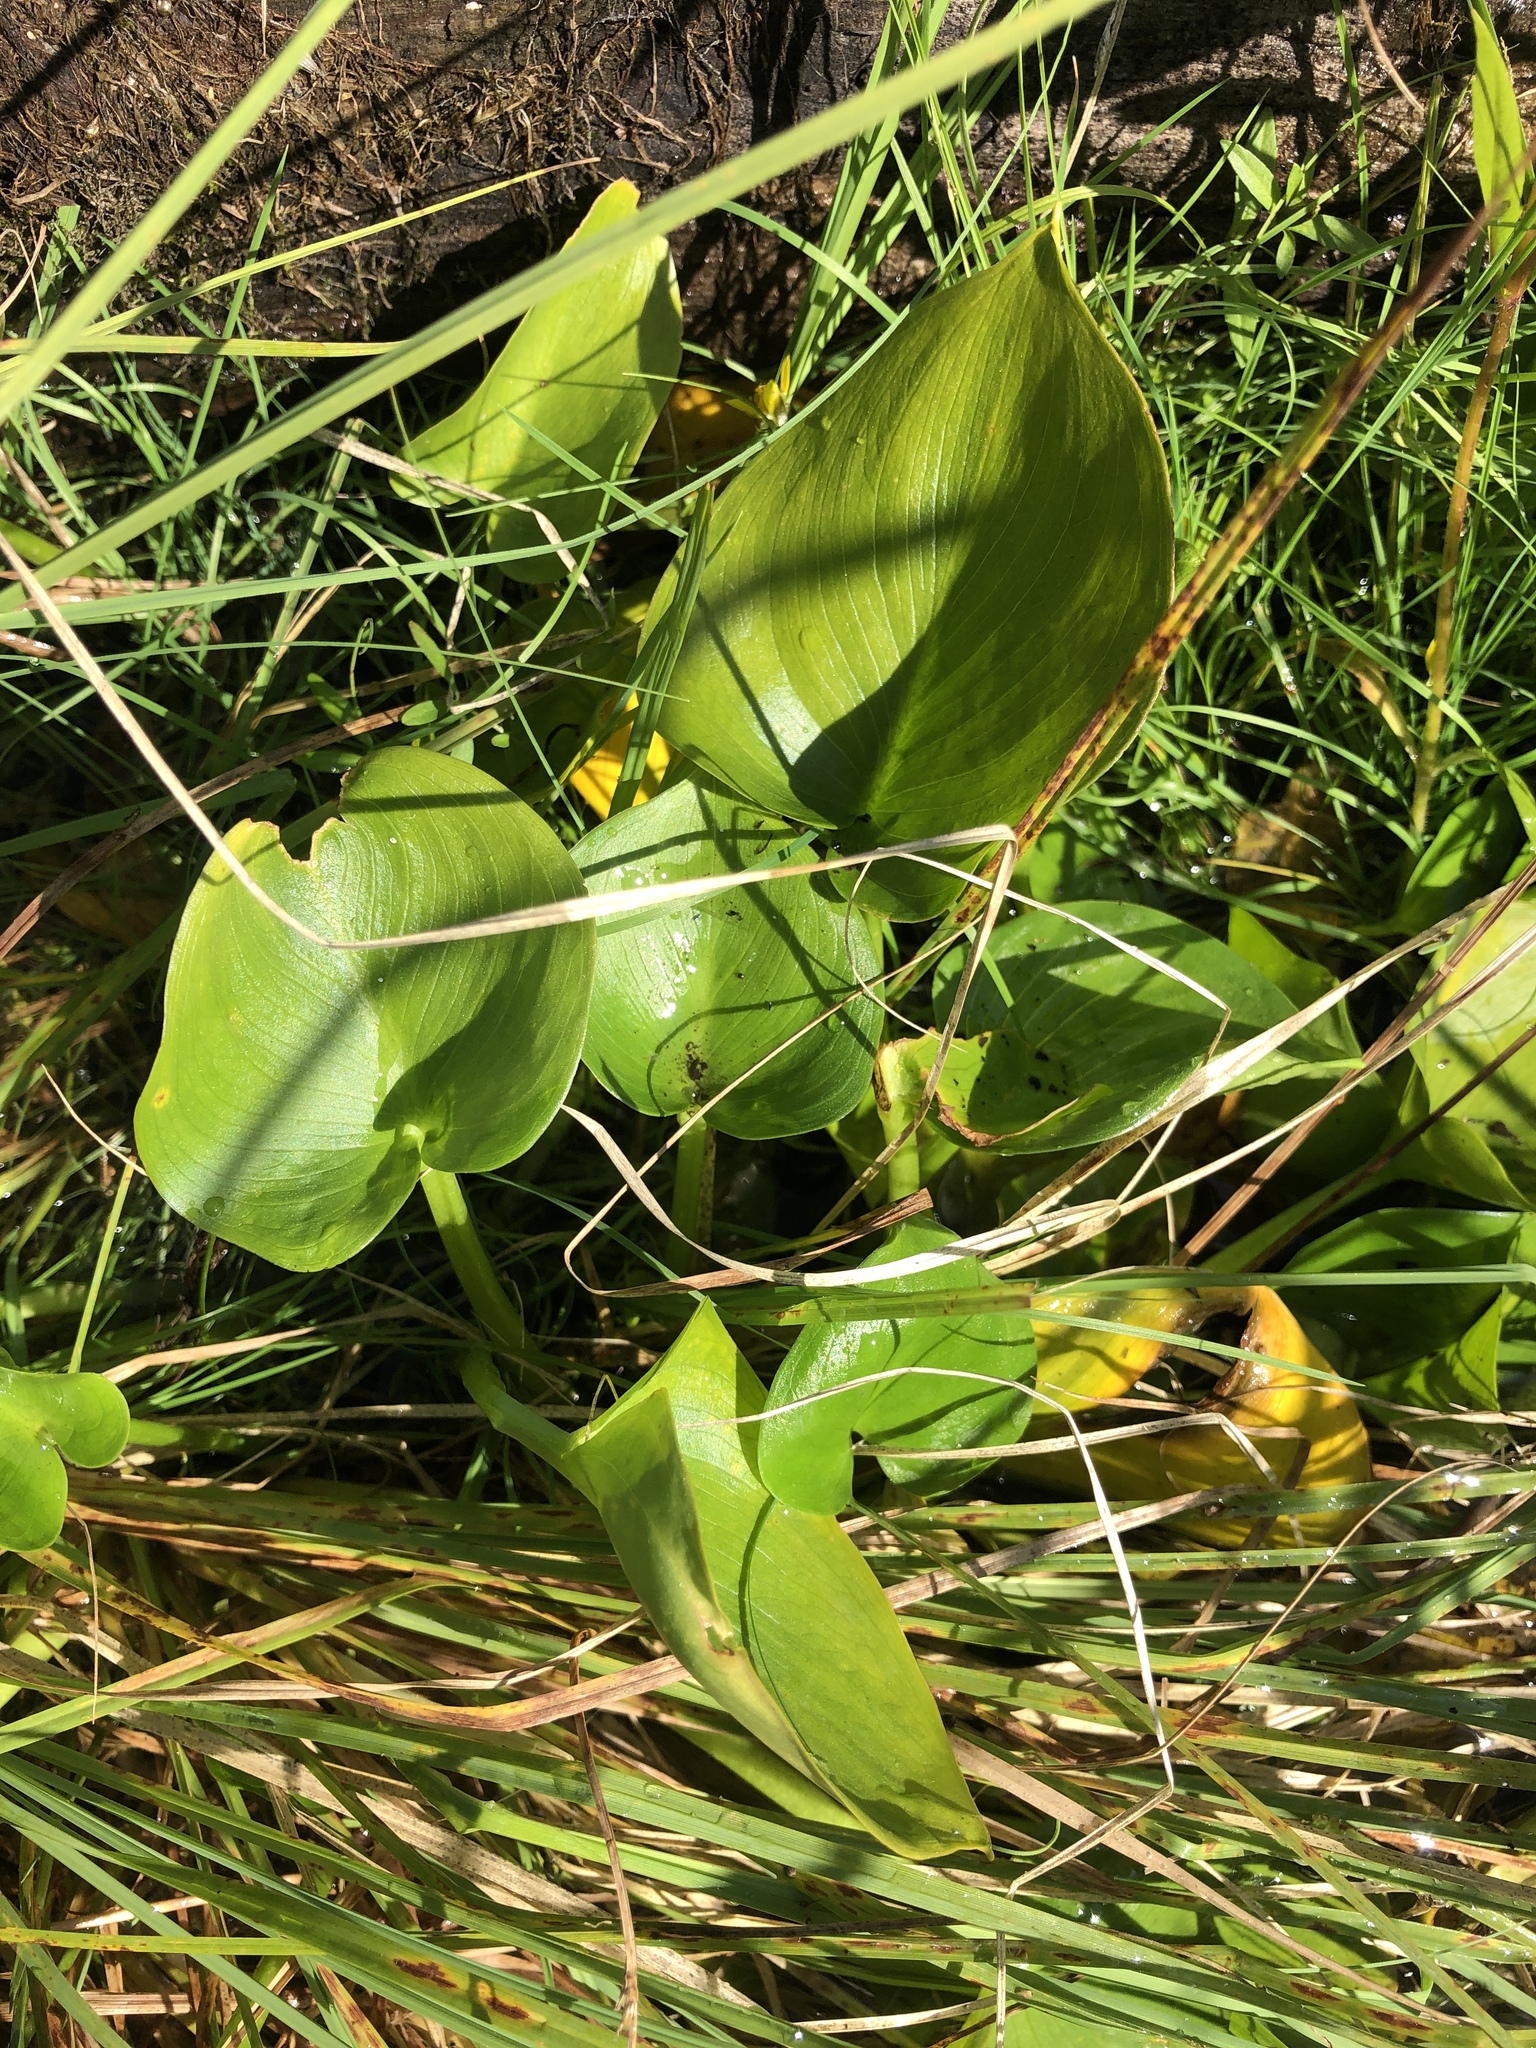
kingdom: Plantae
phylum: Tracheophyta
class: Liliopsida
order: Alismatales
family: Araceae
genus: Calla
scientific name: Calla palustris
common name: Bog arum
